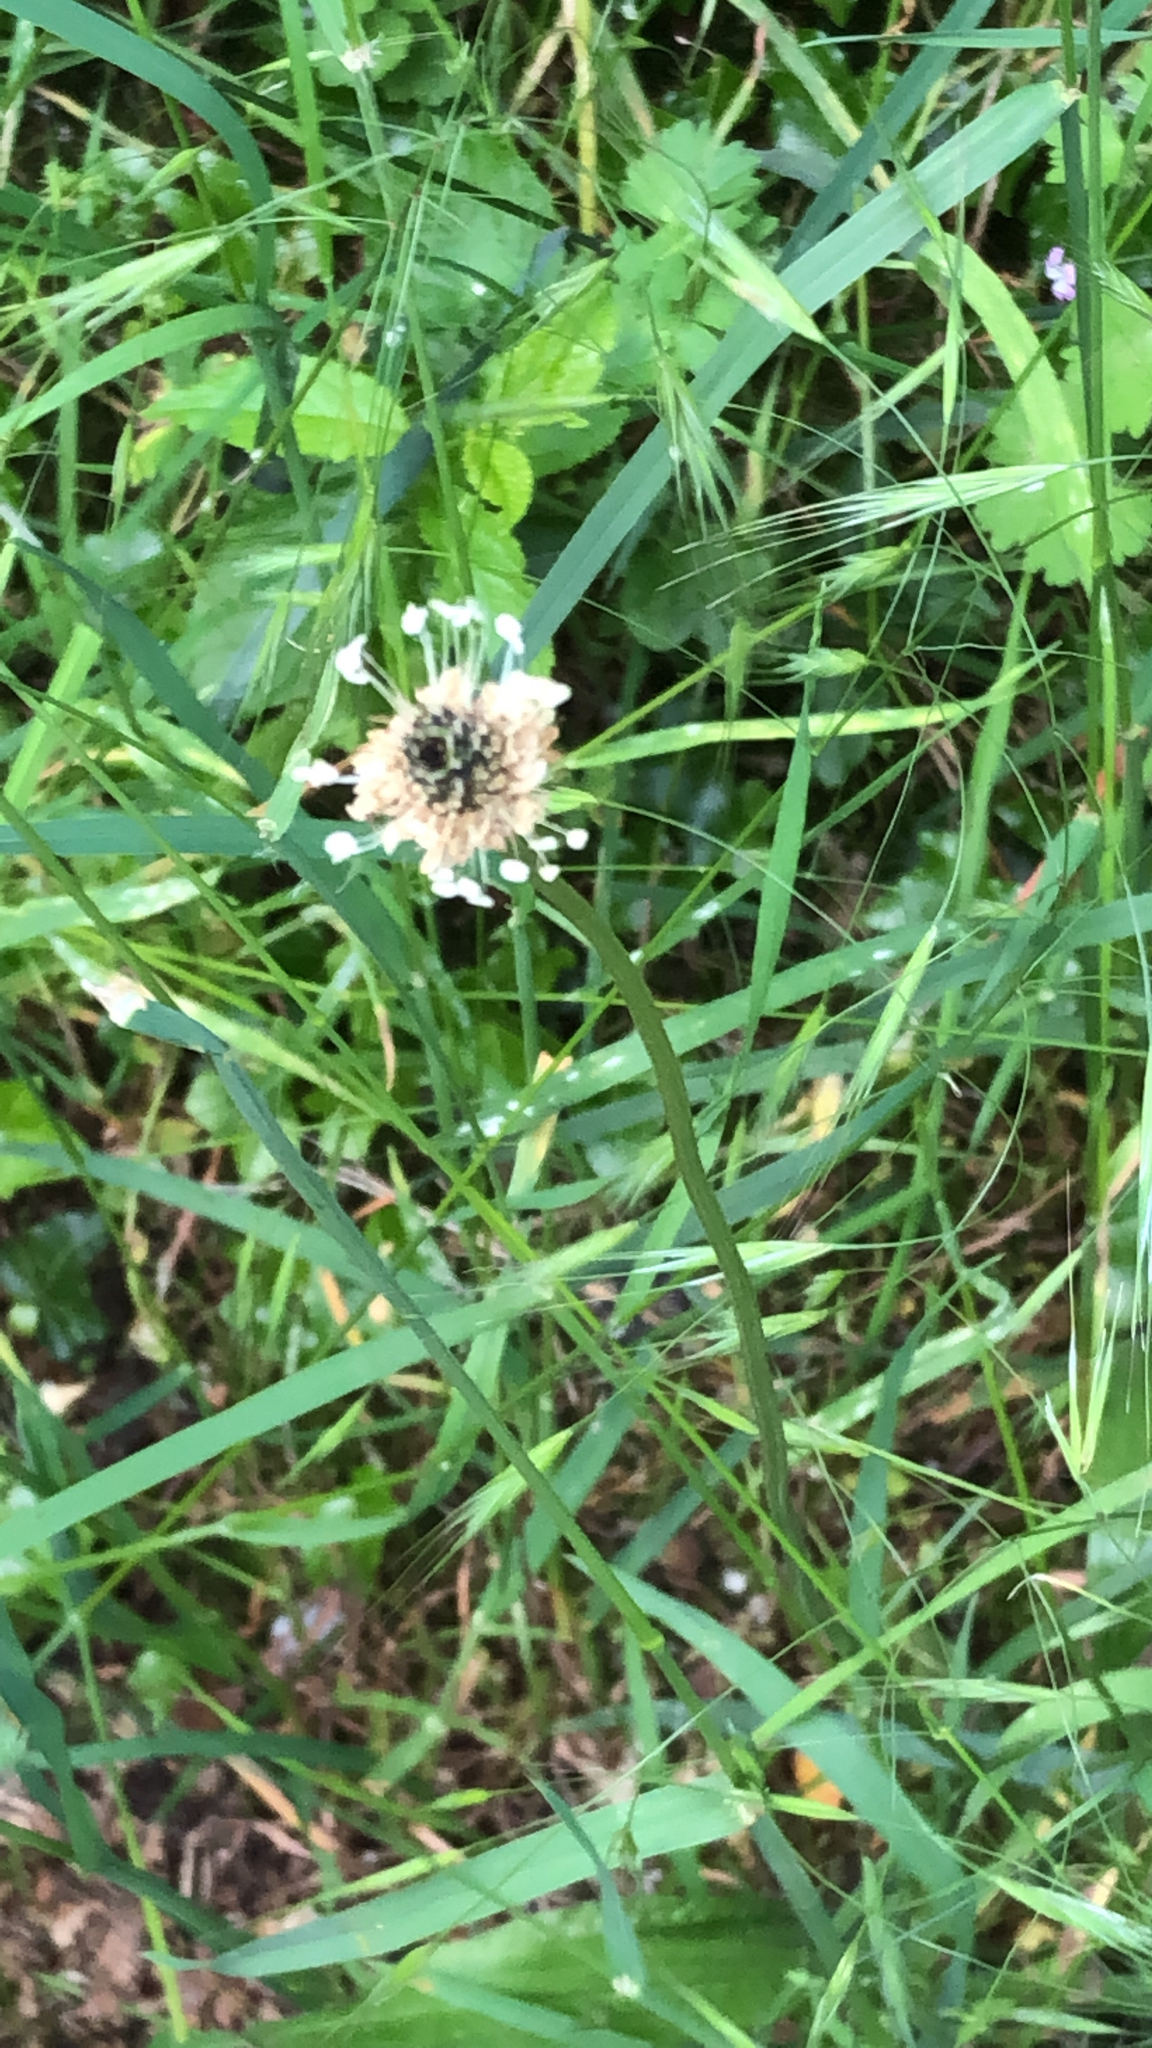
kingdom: Plantae
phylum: Tracheophyta
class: Magnoliopsida
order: Lamiales
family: Plantaginaceae
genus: Plantago
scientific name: Plantago lanceolata
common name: Ribwort plantain
